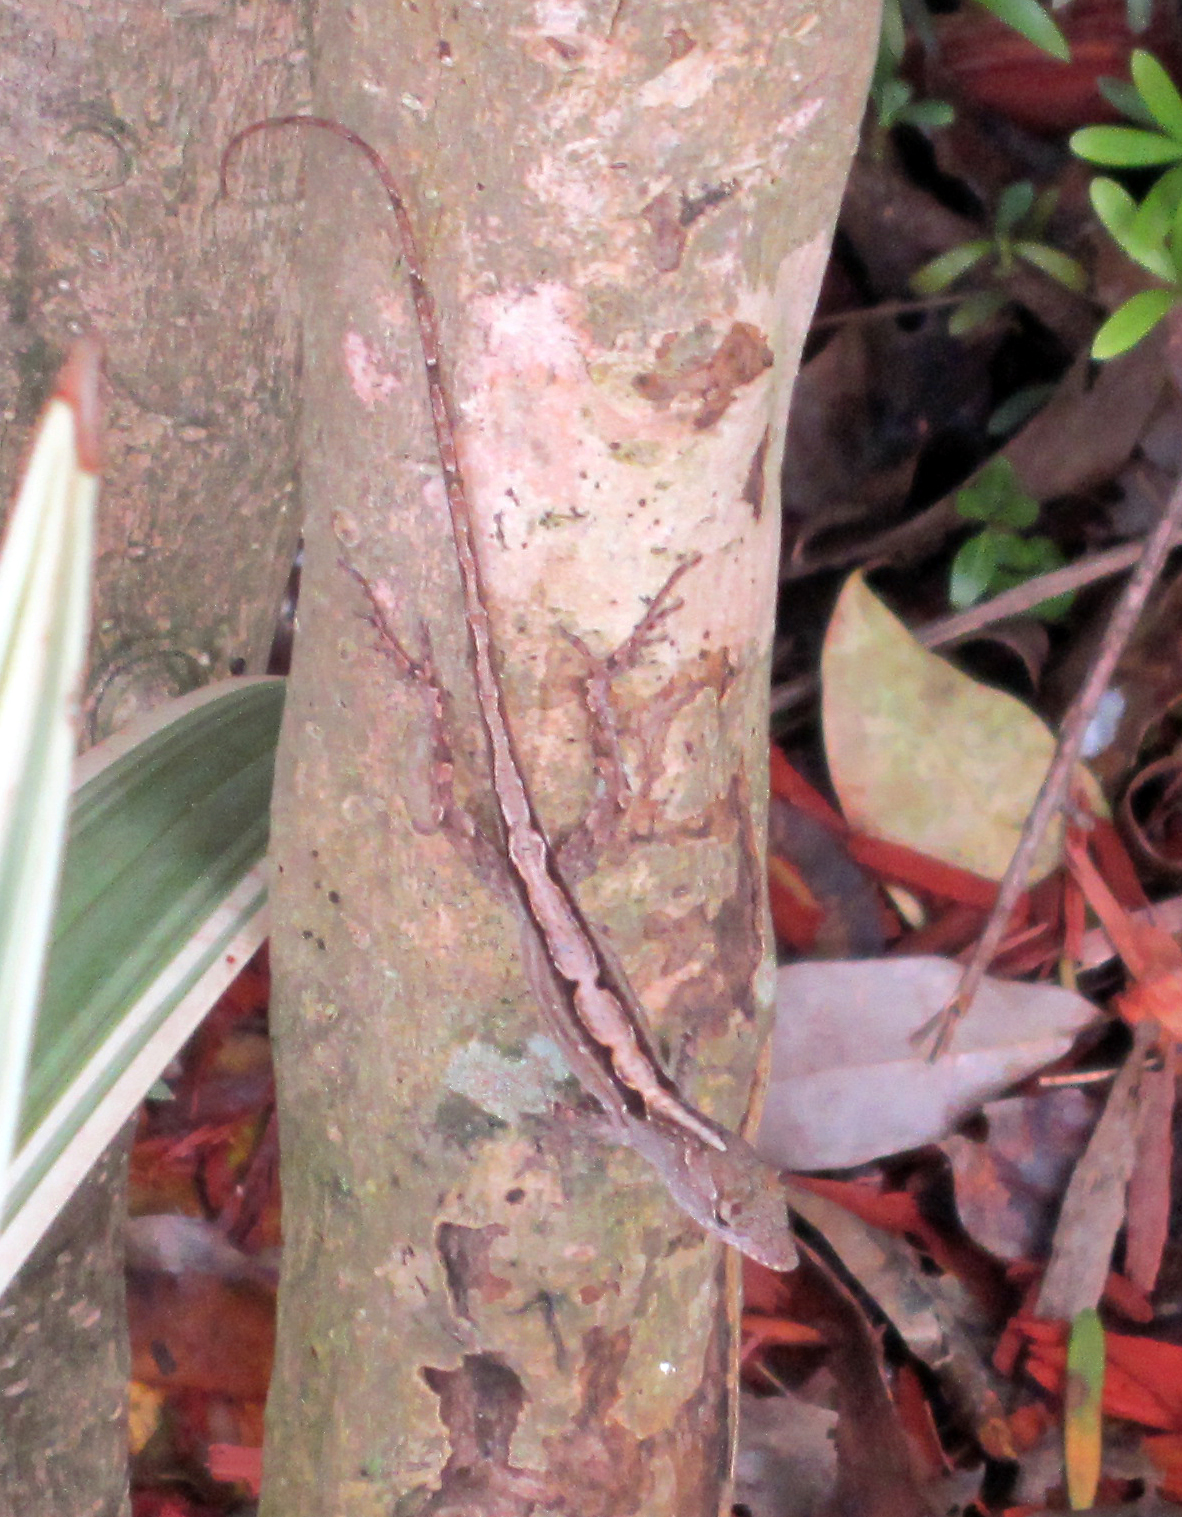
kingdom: Animalia
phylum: Chordata
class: Squamata
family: Dactyloidae
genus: Anolis
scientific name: Anolis sagrei
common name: Brown anole
